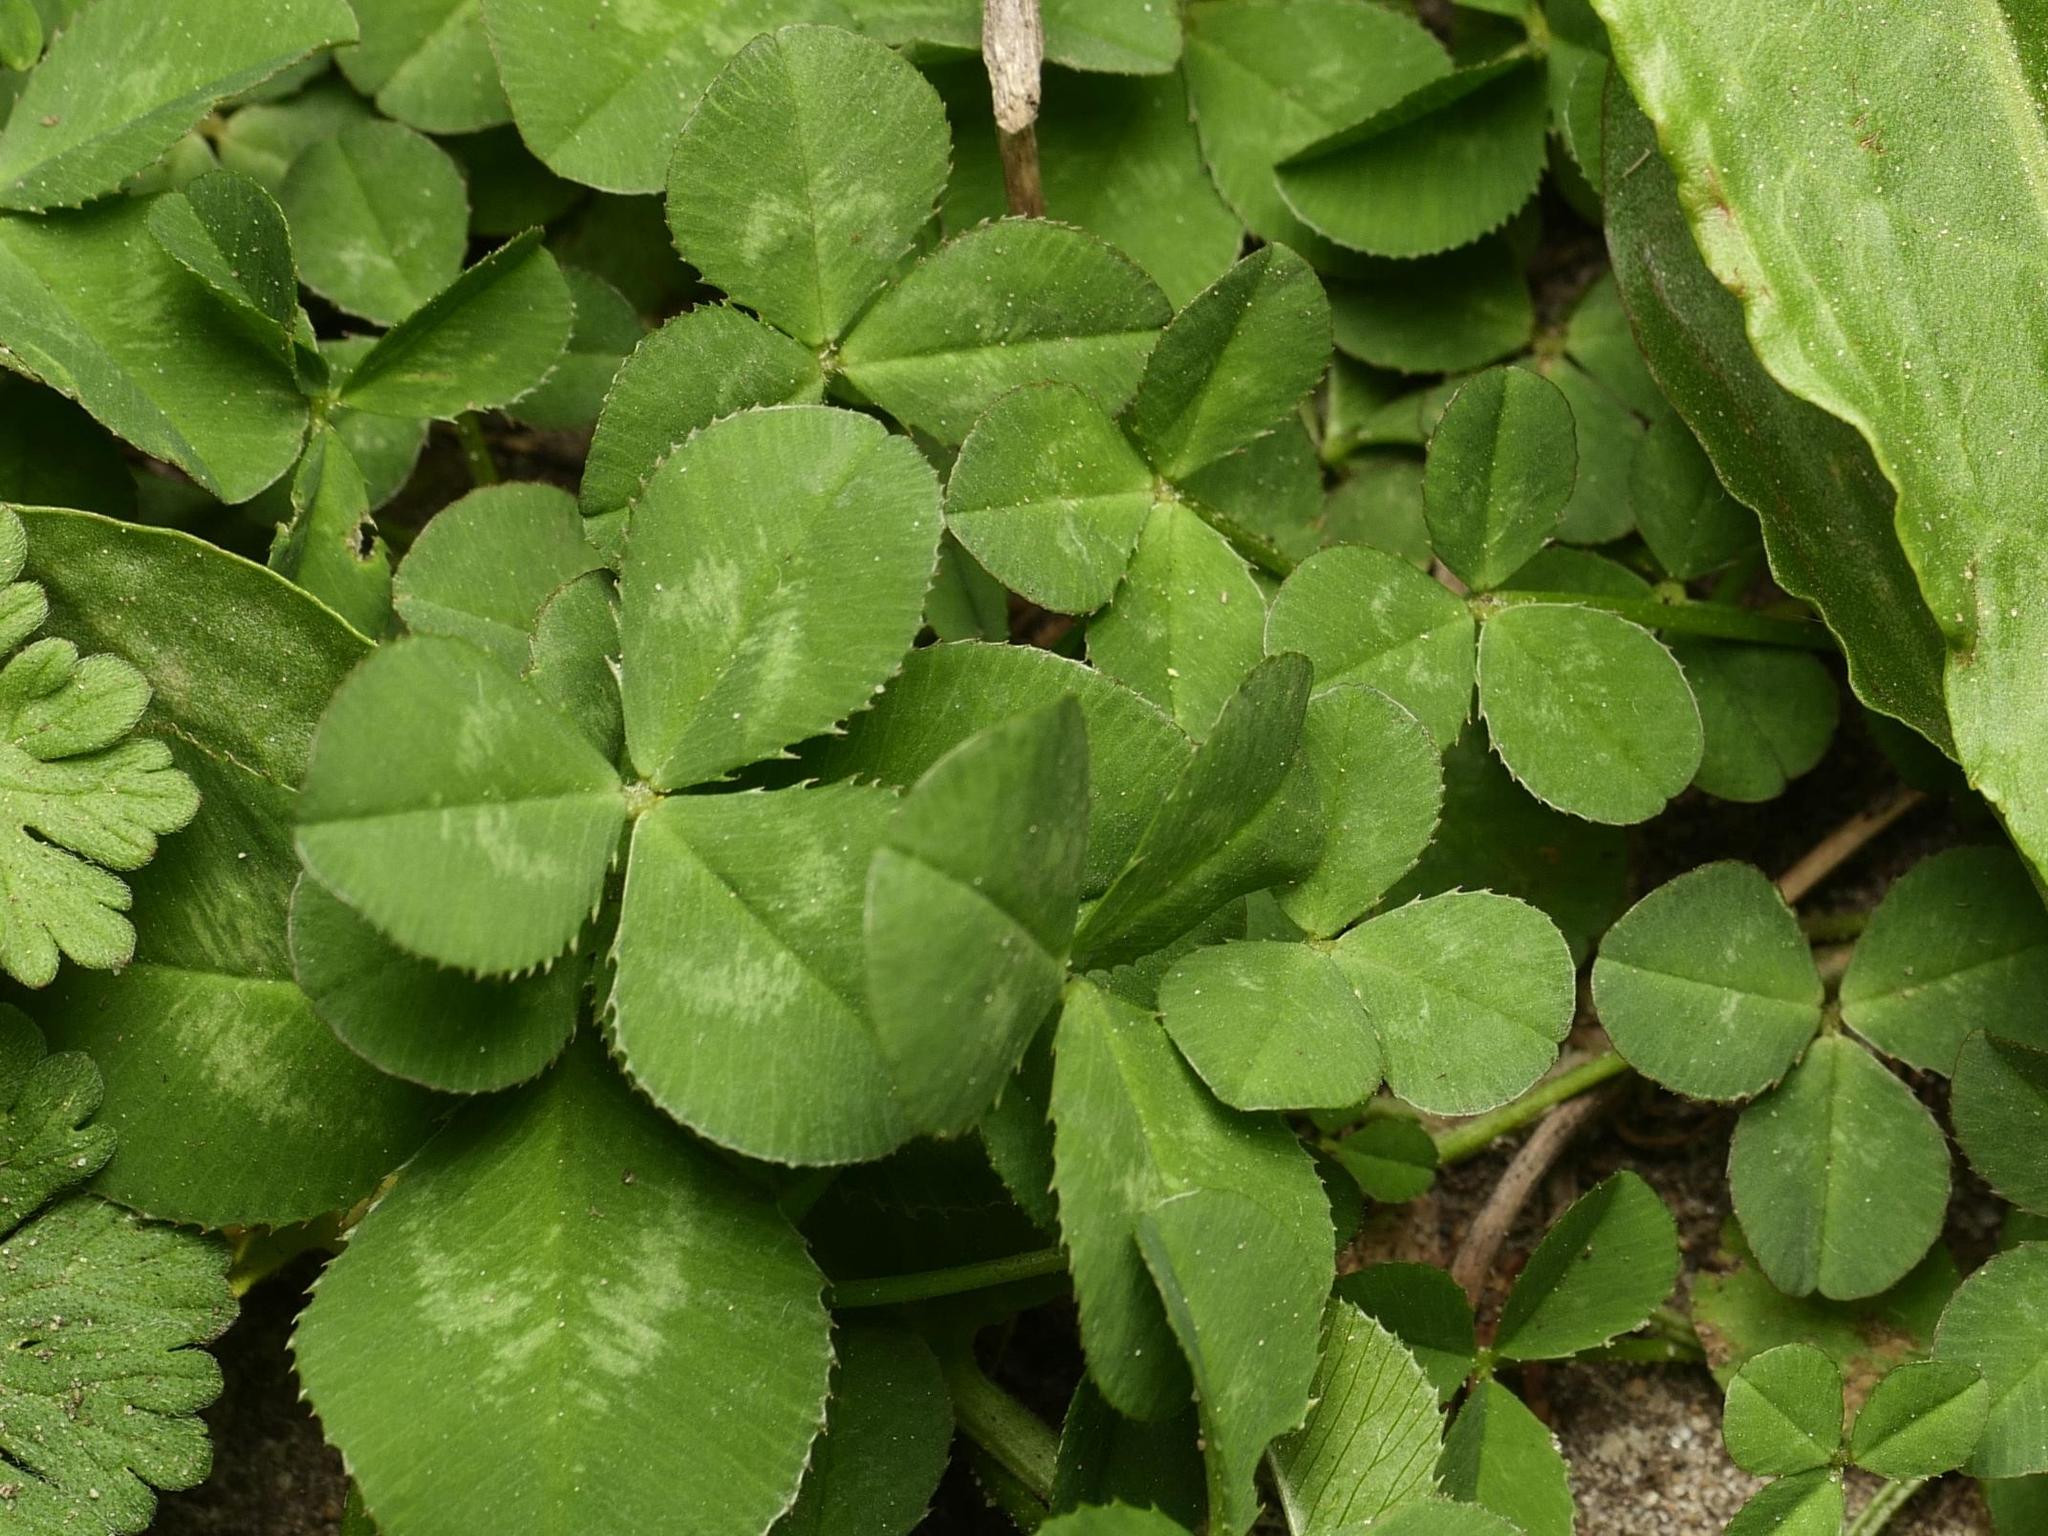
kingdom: Plantae
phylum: Tracheophyta
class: Magnoliopsida
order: Fabales
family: Fabaceae
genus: Trifolium
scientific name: Trifolium repens
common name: White clover
